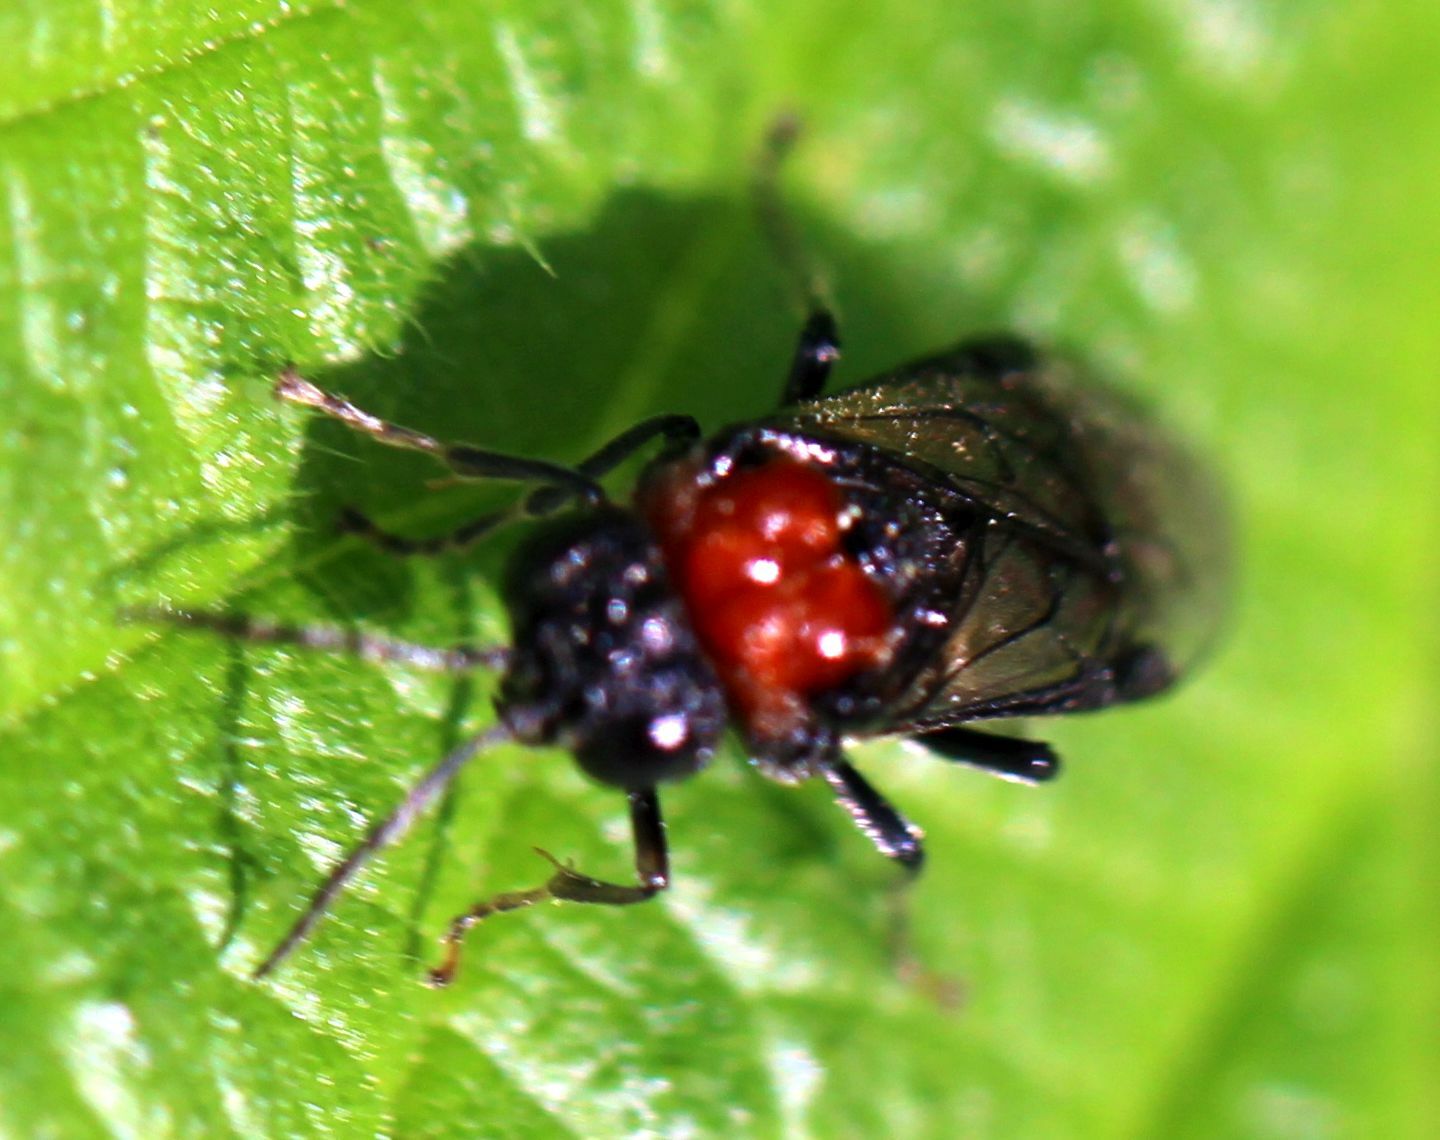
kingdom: Animalia
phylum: Arthropoda
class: Insecta
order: Hymenoptera
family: Tenthredinidae
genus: Eriocampa
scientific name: Eriocampa ovata
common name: Alder wooly sawfly
